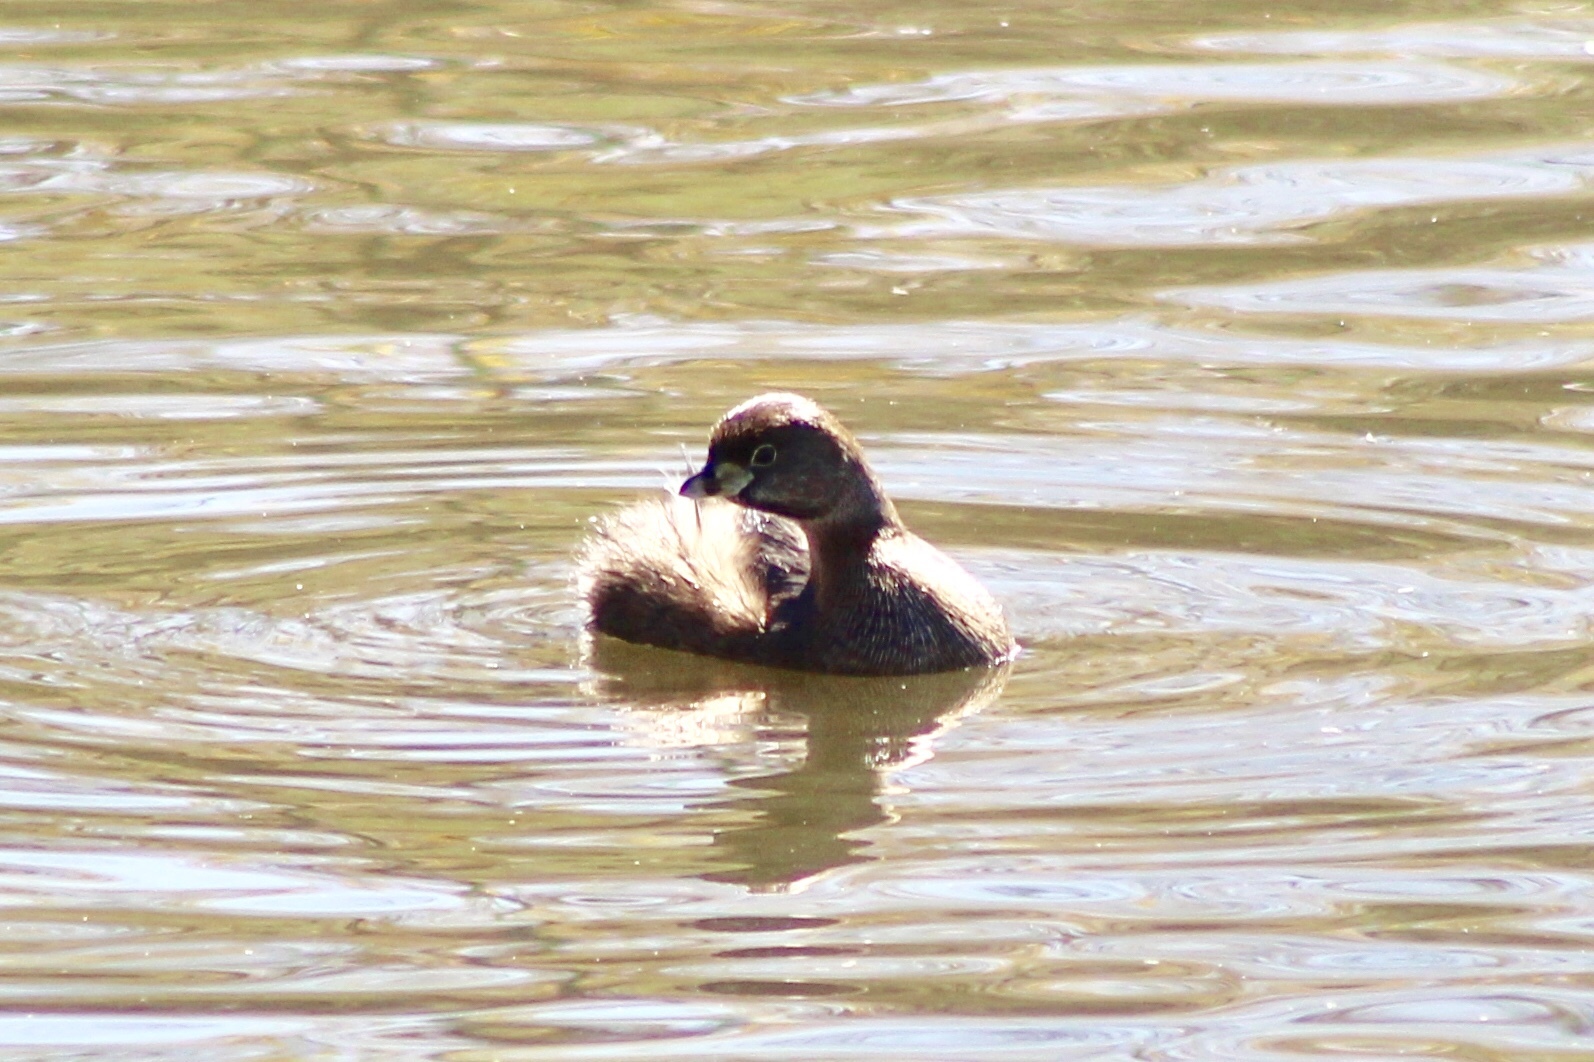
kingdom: Animalia
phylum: Chordata
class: Aves
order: Podicipediformes
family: Podicipedidae
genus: Podilymbus
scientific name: Podilymbus podiceps
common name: Pied-billed grebe
